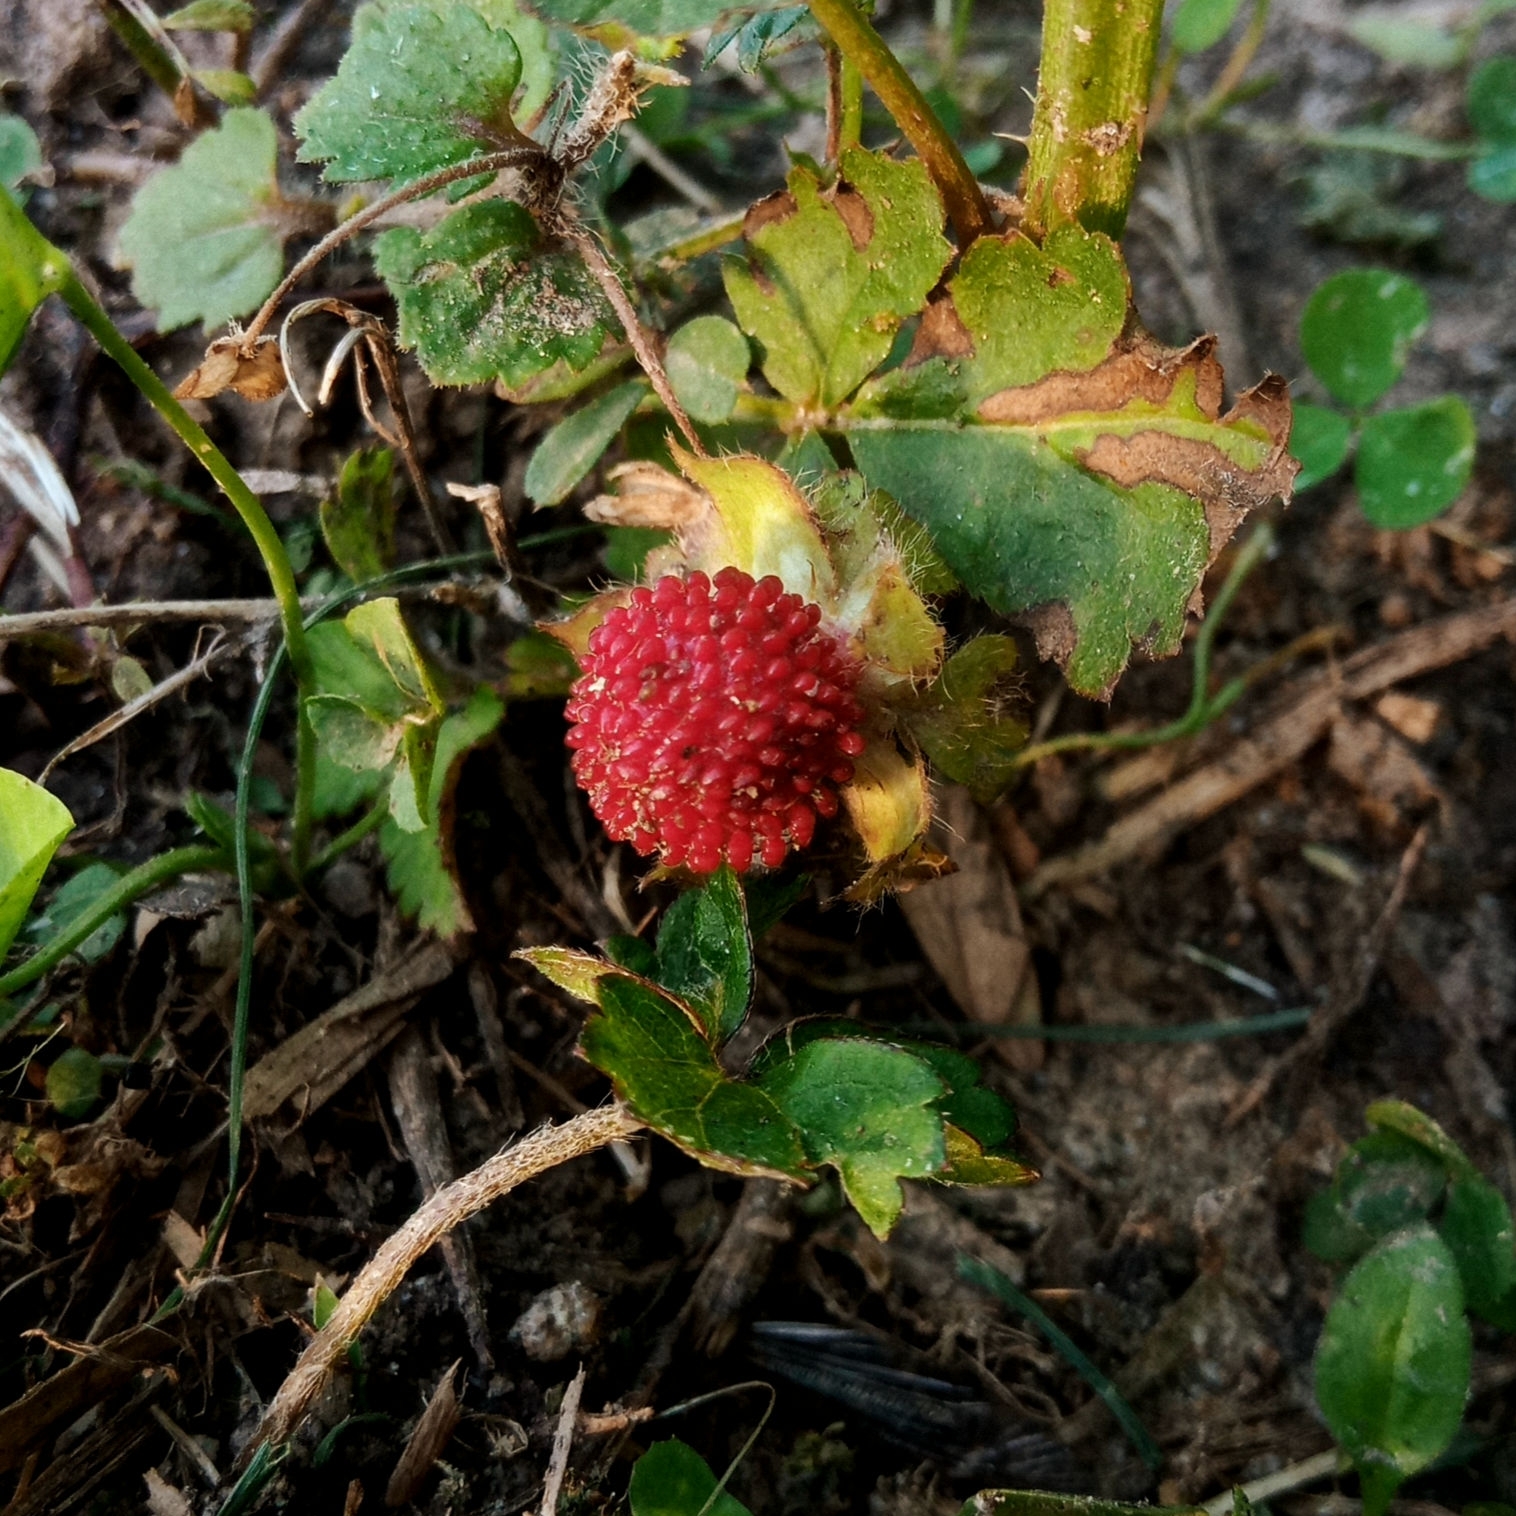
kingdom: Plantae
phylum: Tracheophyta
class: Magnoliopsida
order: Rosales
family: Rosaceae
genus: Potentilla
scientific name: Potentilla indica
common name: Yellow-flowered strawberry
